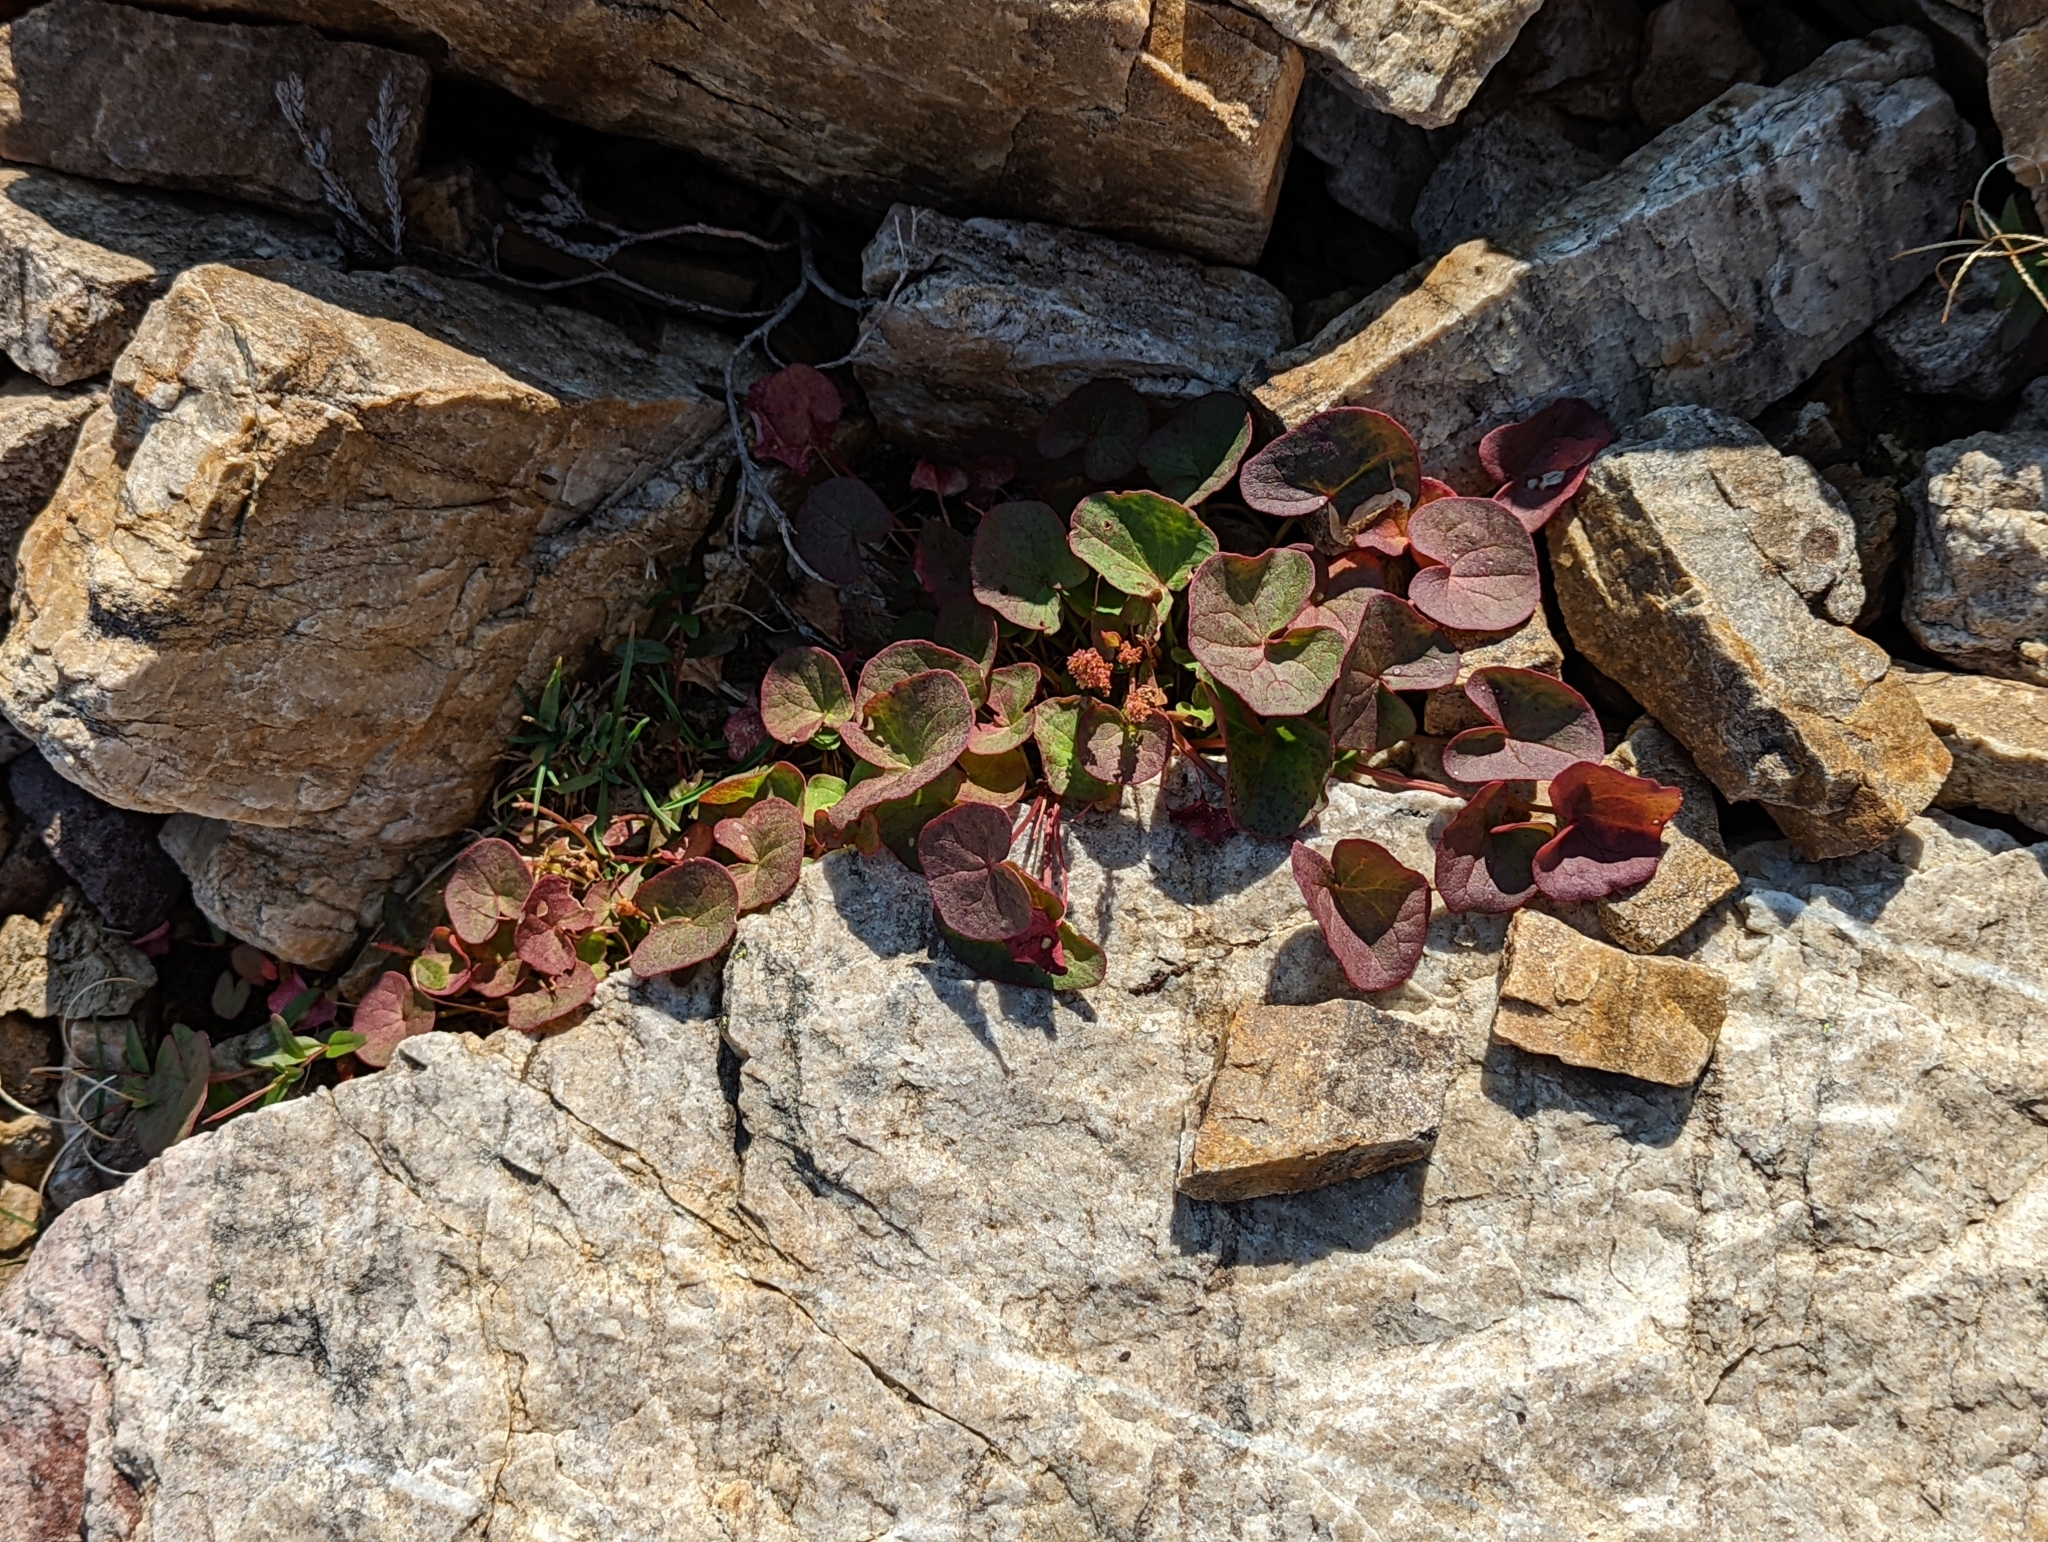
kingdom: Plantae
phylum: Tracheophyta
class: Magnoliopsida
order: Caryophyllales
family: Polygonaceae
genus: Oxyria
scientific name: Oxyria digyna
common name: Alpine mountain-sorrel
